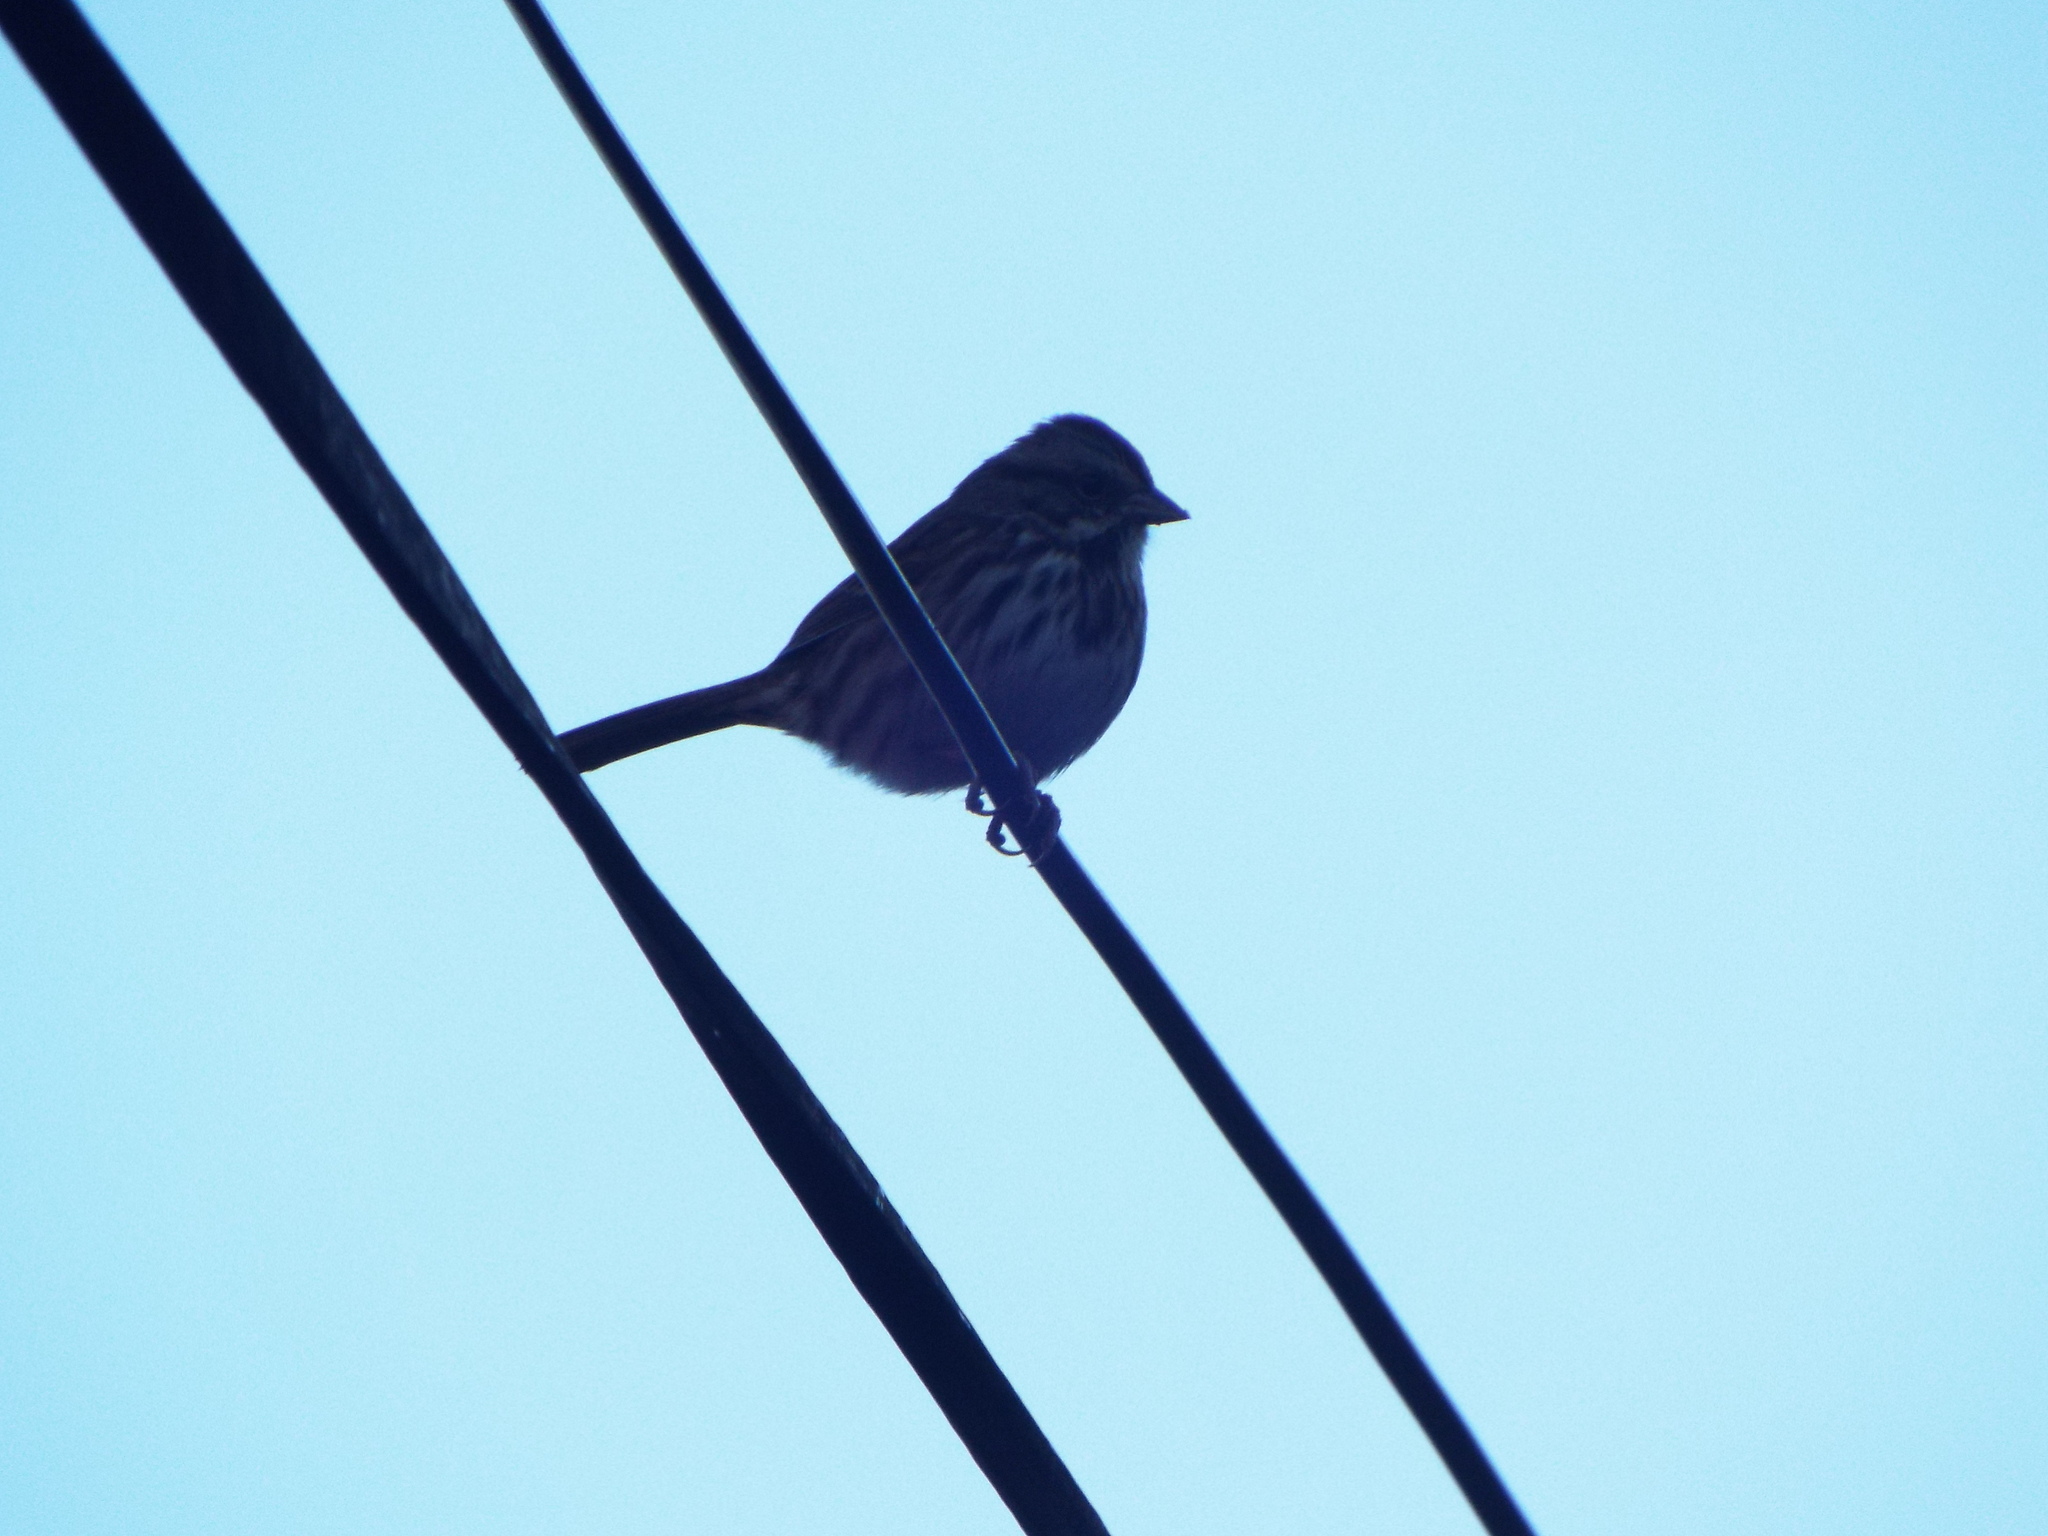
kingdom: Animalia
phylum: Chordata
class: Aves
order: Passeriformes
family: Passerellidae
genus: Melospiza
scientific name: Melospiza melodia
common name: Song sparrow
